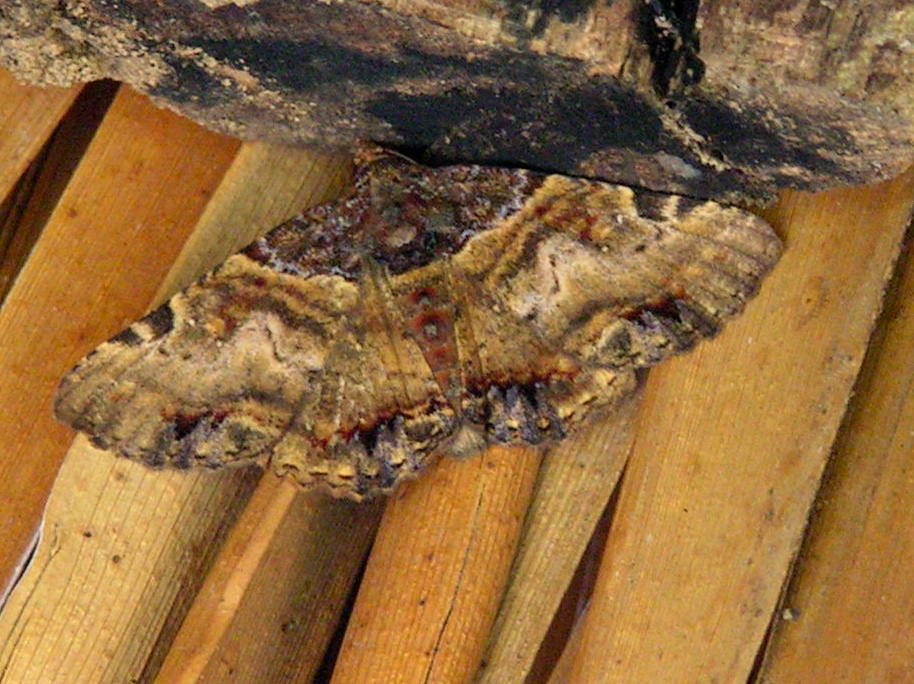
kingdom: Animalia
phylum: Arthropoda
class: Insecta
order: Lepidoptera
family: Erebidae
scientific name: Erebidae
